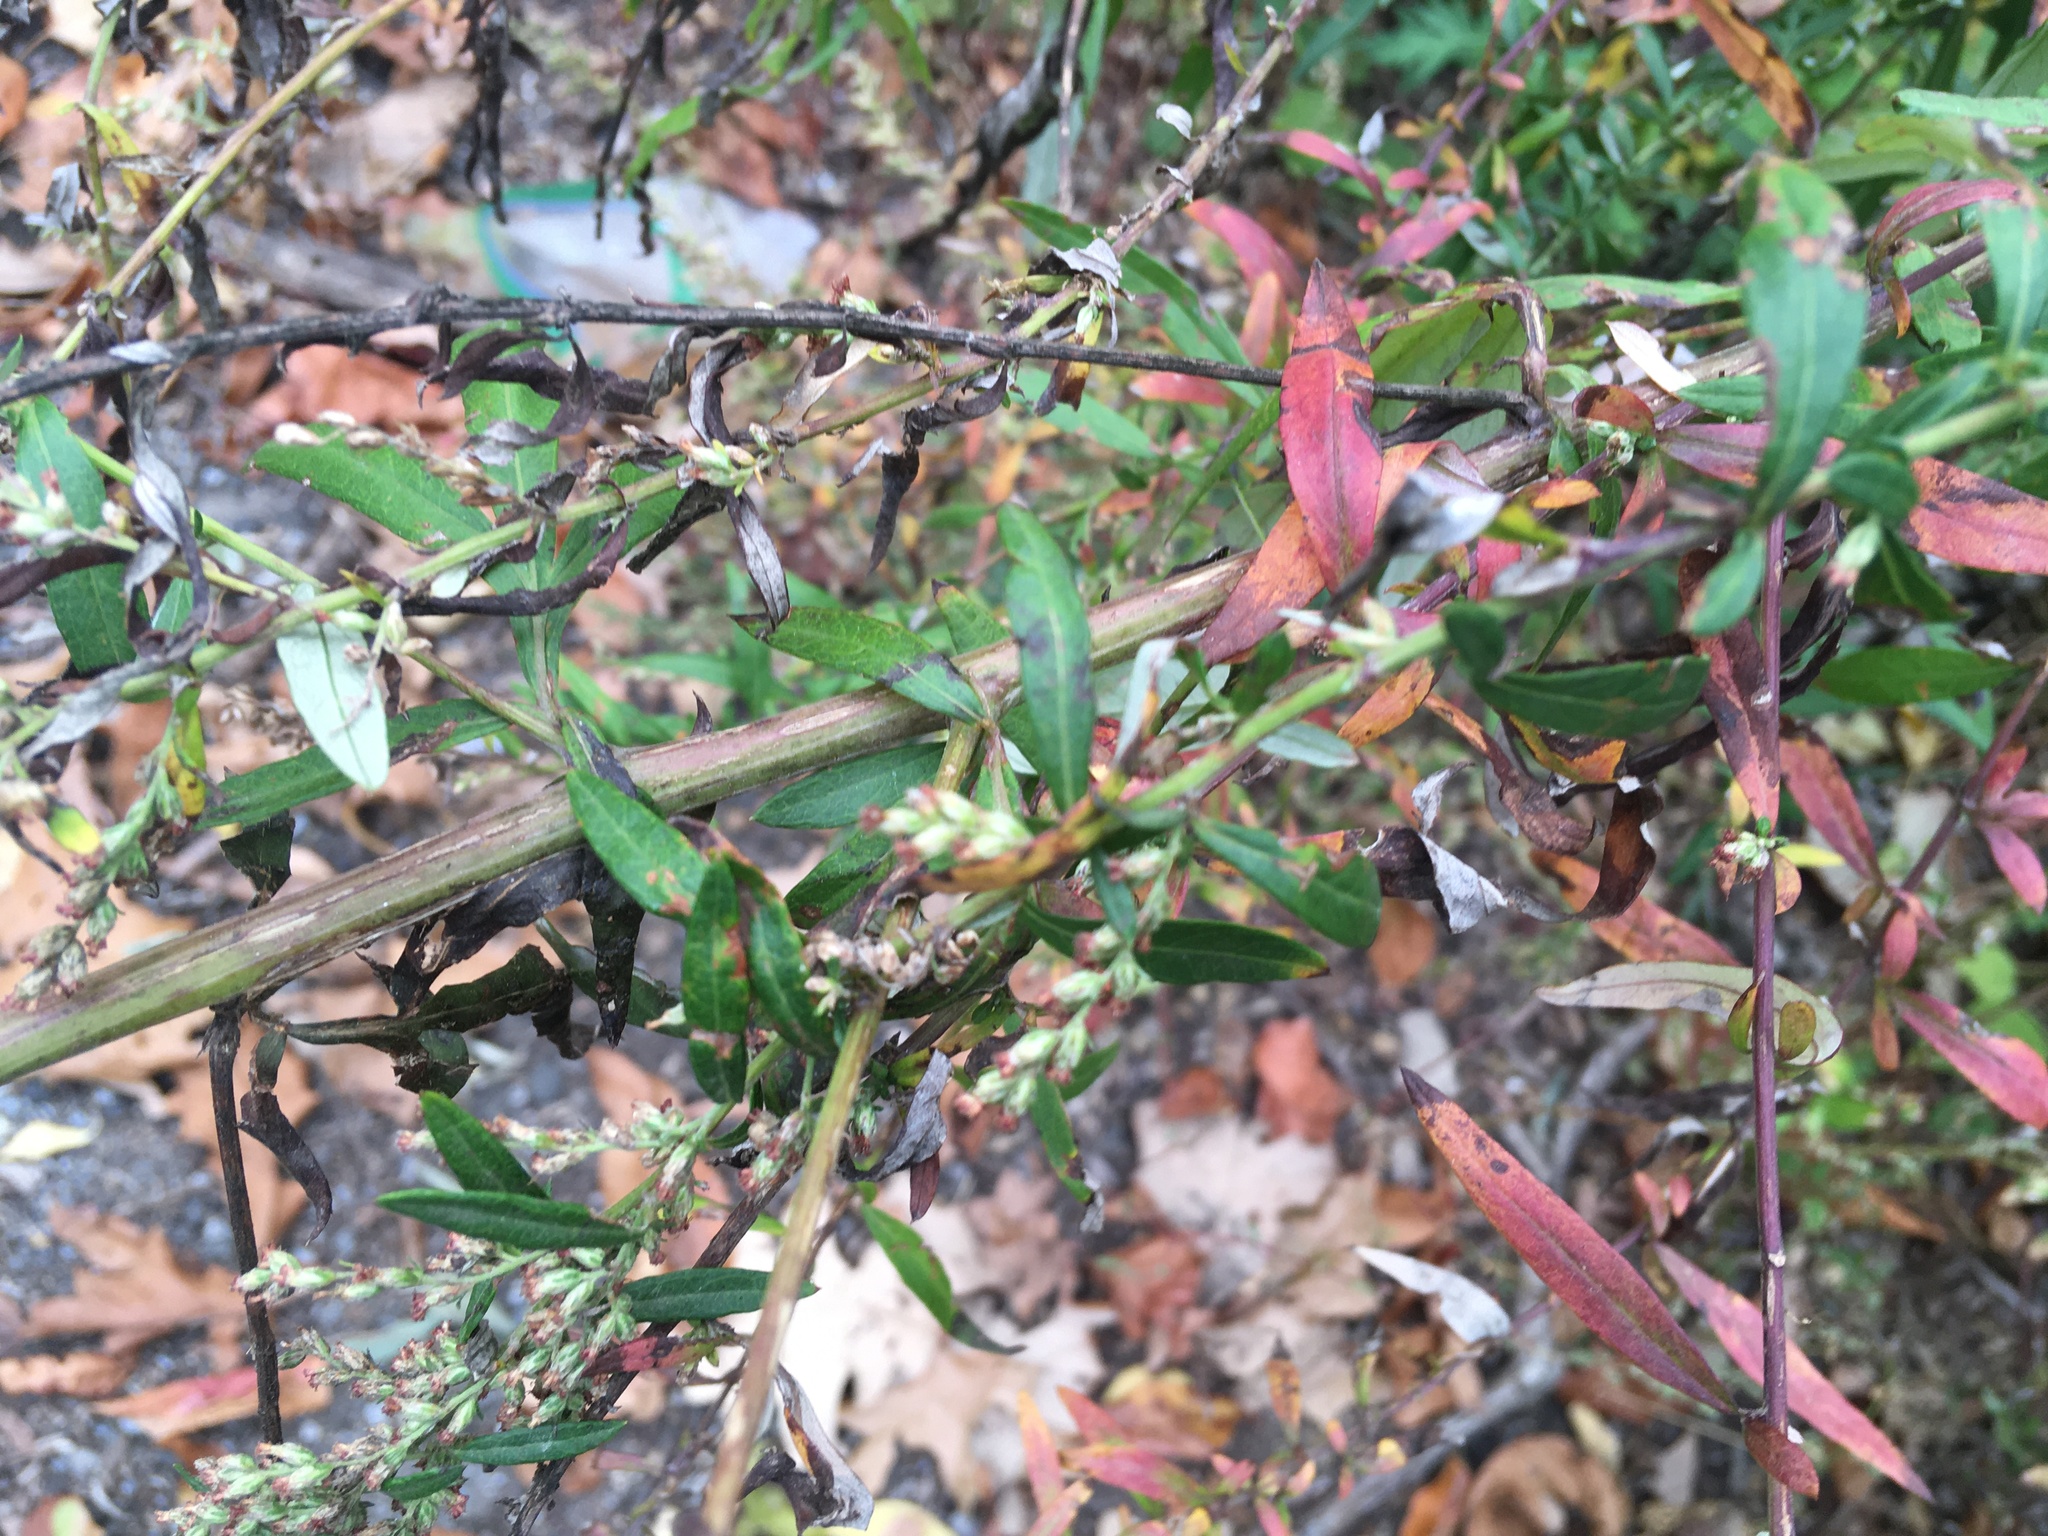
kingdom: Plantae
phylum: Tracheophyta
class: Magnoliopsida
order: Asterales
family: Asteraceae
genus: Artemisia
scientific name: Artemisia vulgaris
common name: Mugwort
